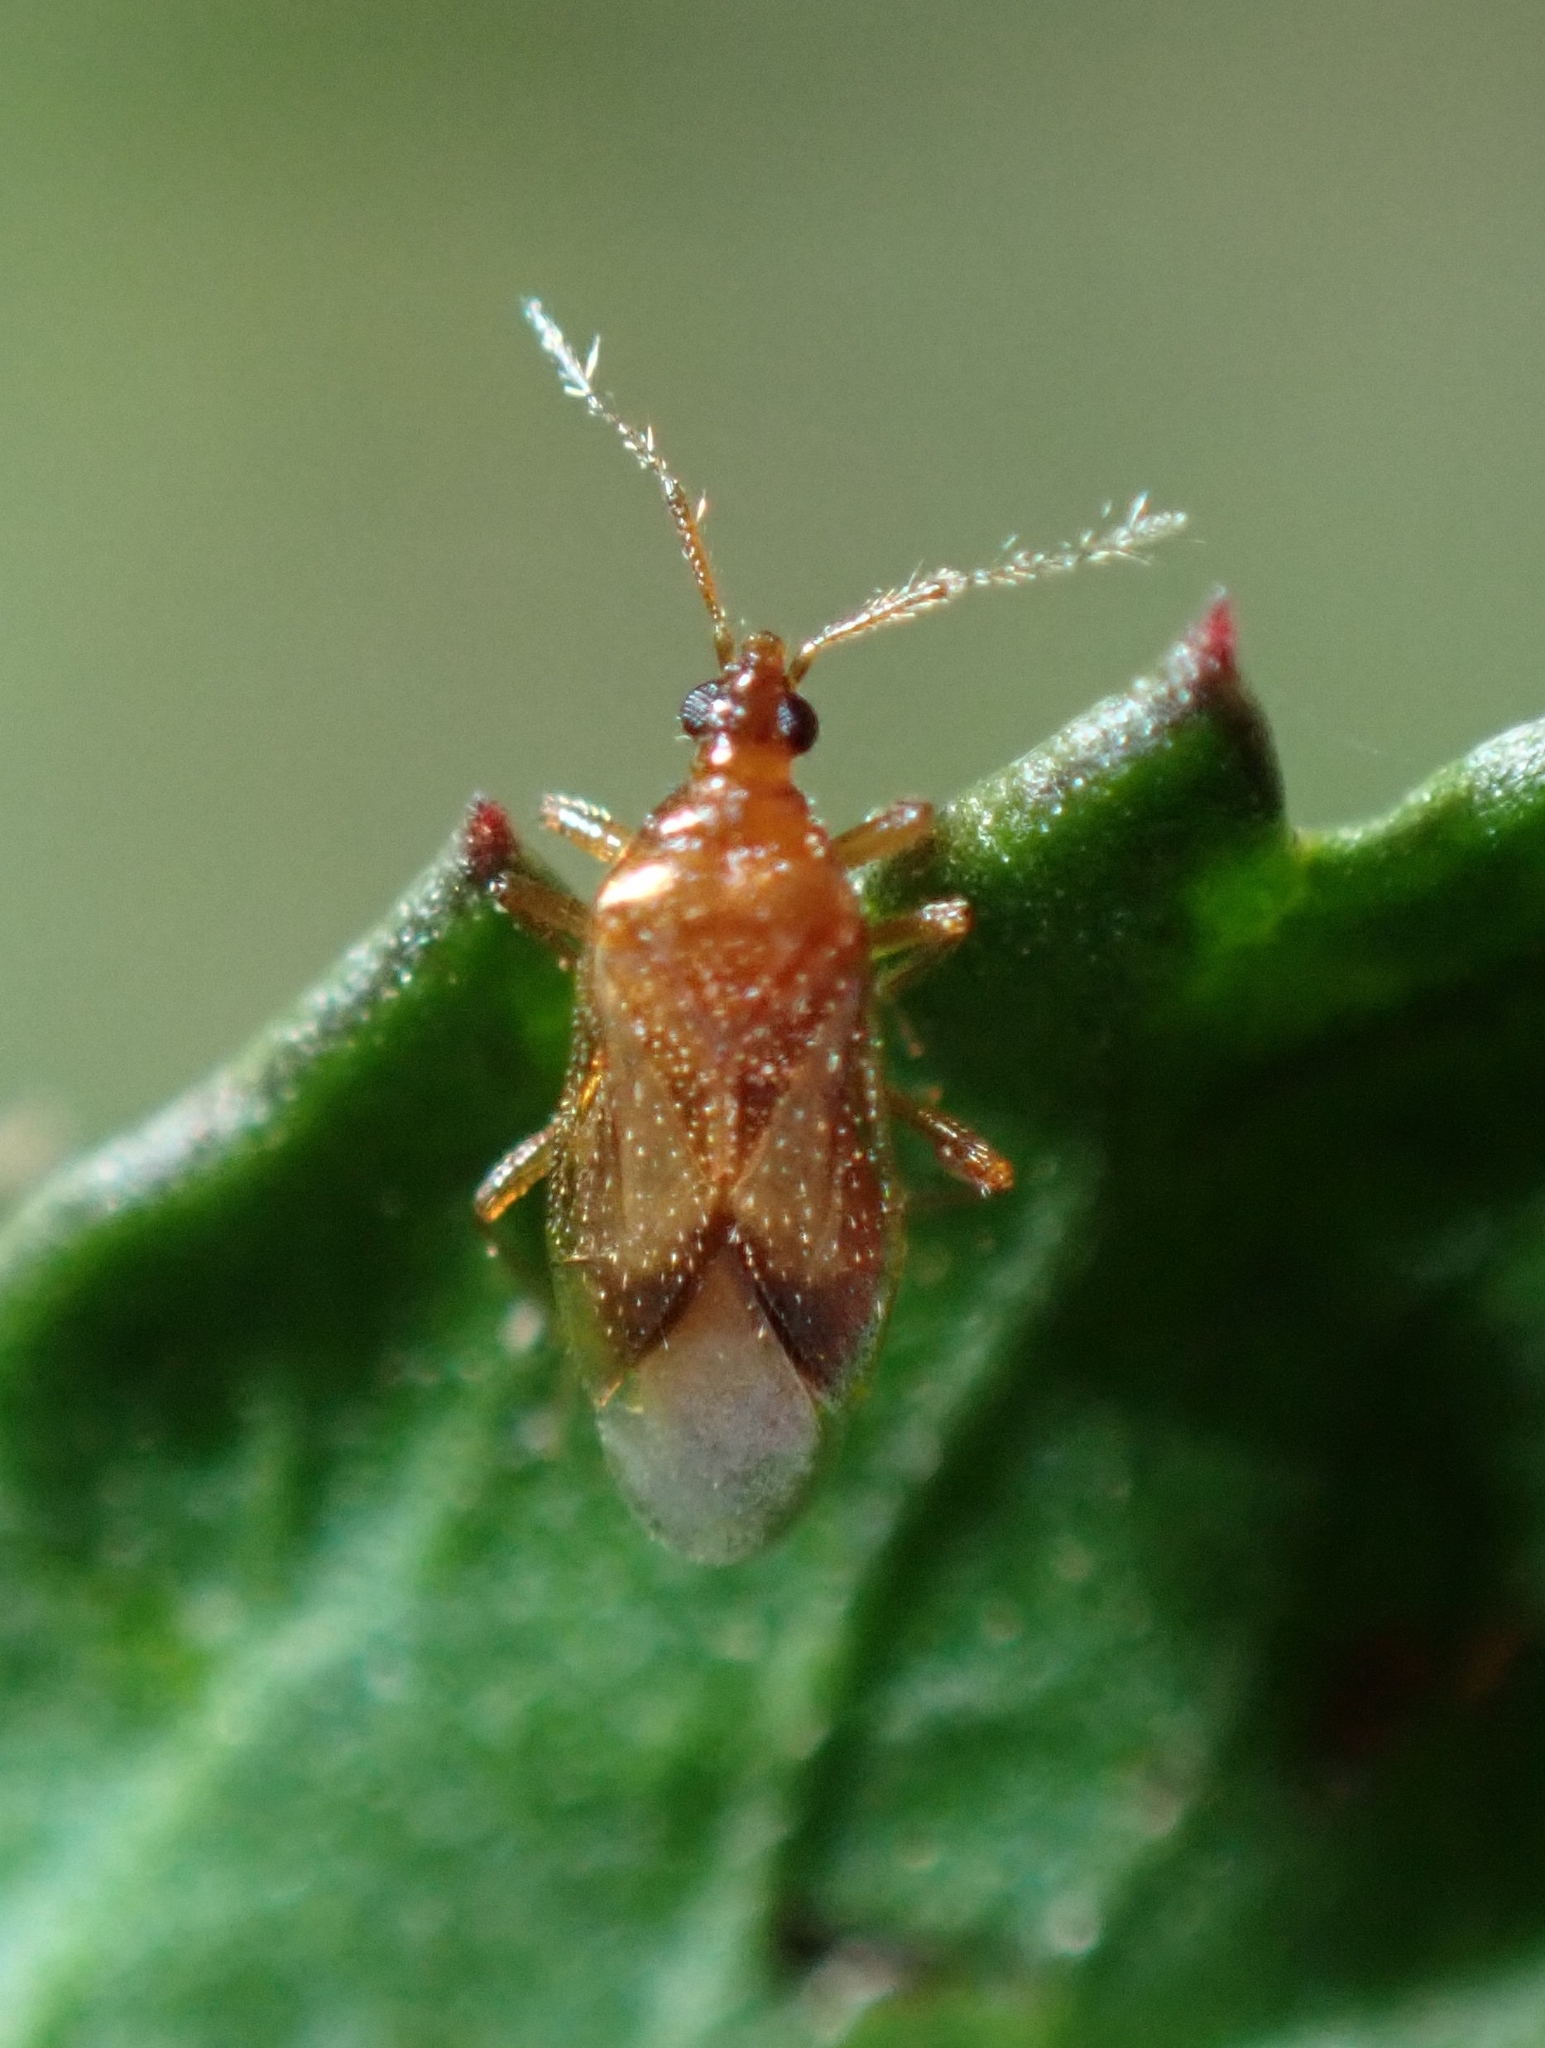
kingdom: Animalia
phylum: Arthropoda
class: Insecta
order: Hemiptera
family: Anthocoridae
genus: Amphiareus
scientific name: Amphiareus constrictus
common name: Minute pirate bug
